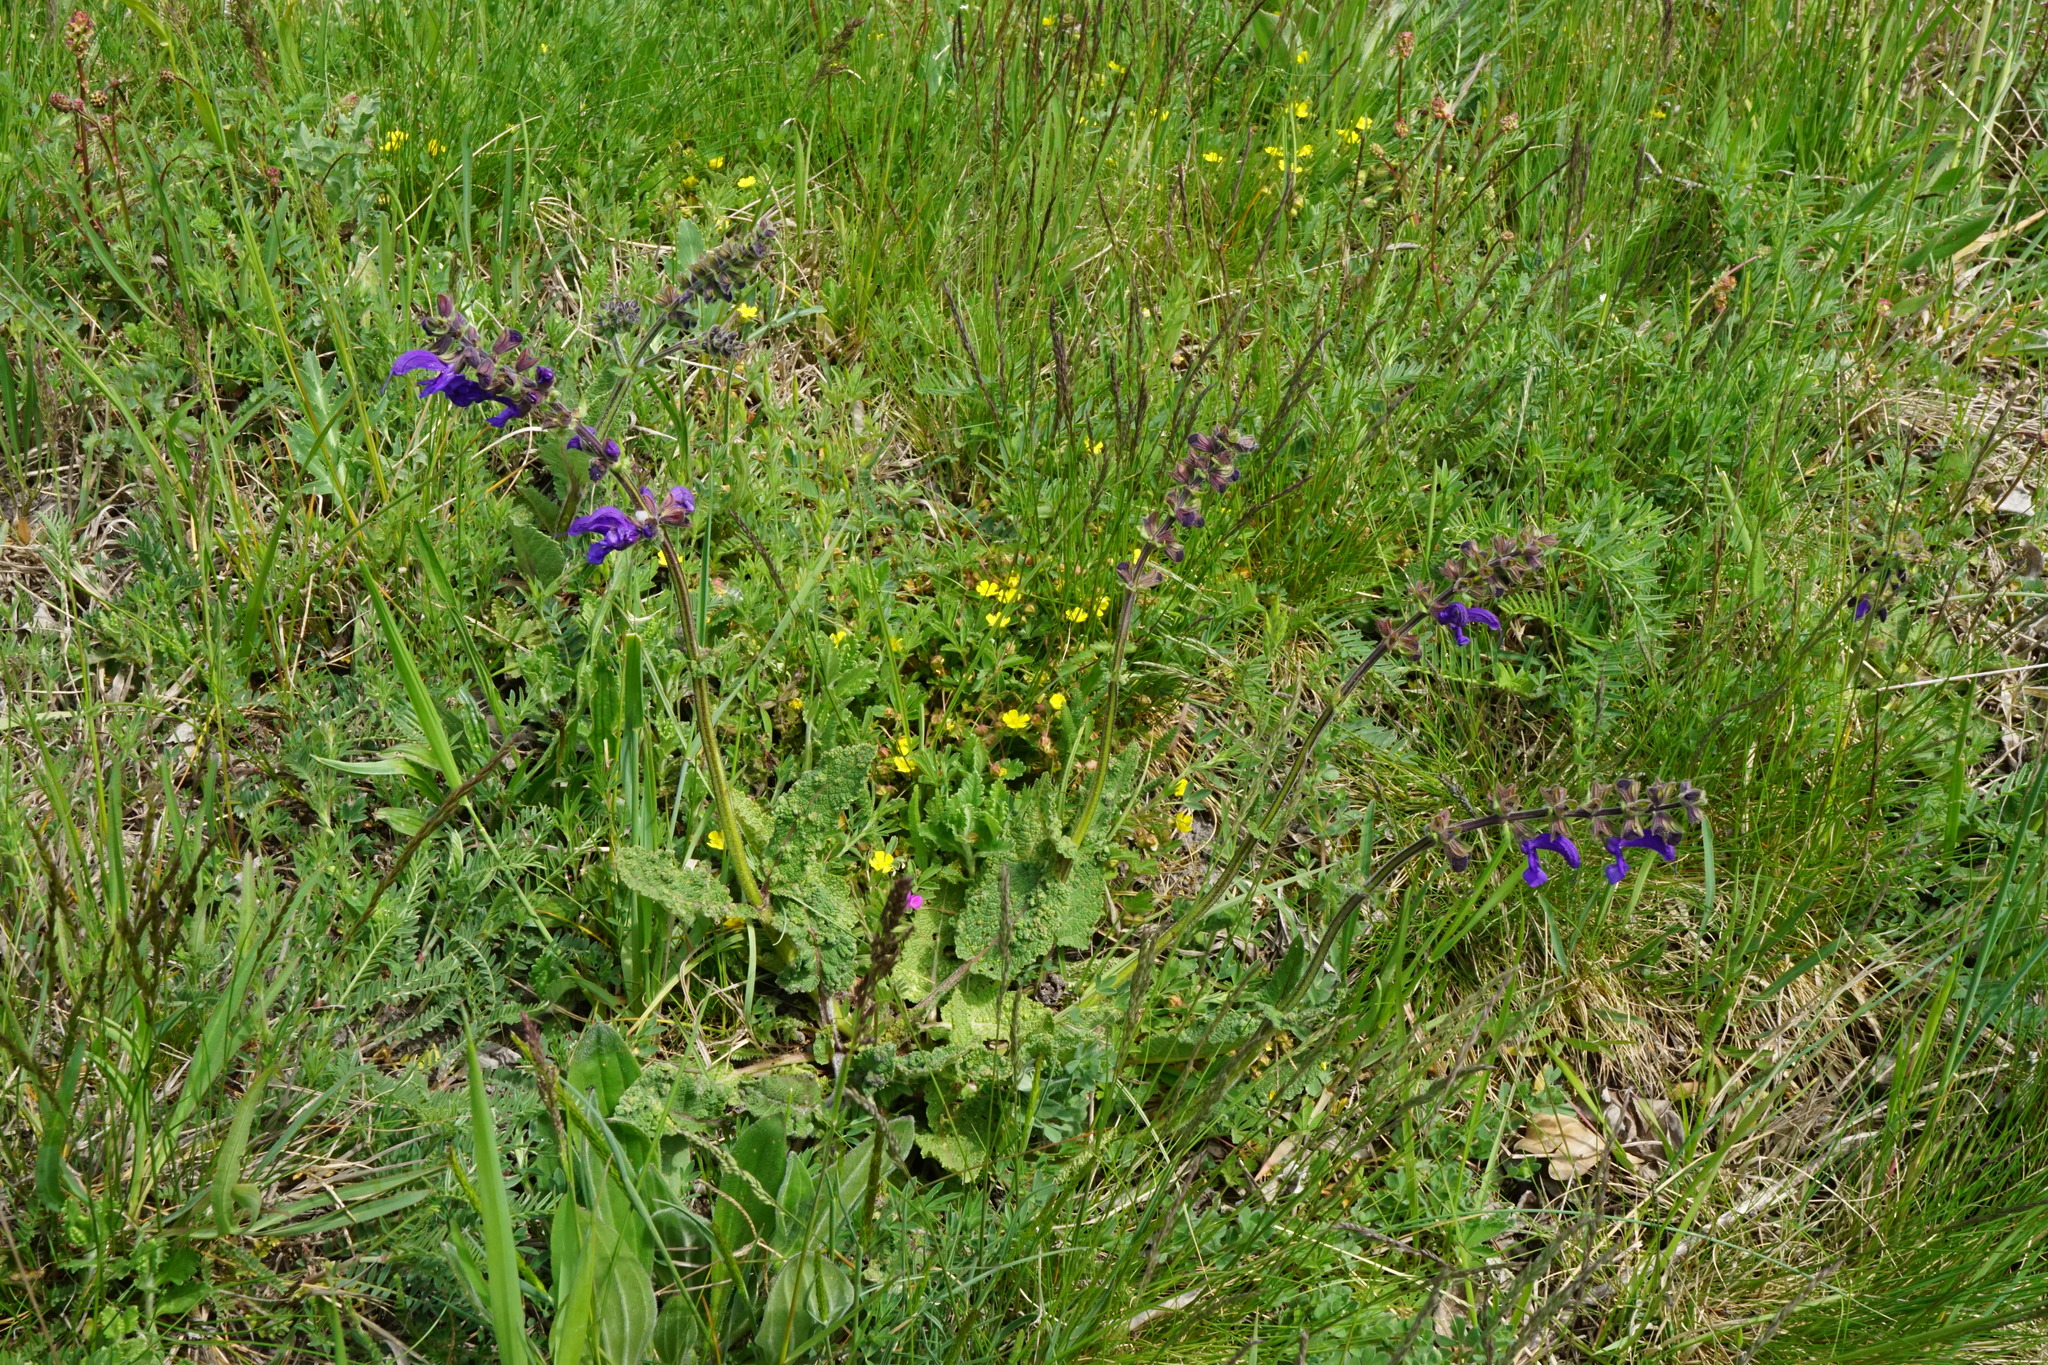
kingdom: Plantae
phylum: Tracheophyta
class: Magnoliopsida
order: Lamiales
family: Lamiaceae
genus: Salvia
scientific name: Salvia pratensis
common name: Meadow sage
